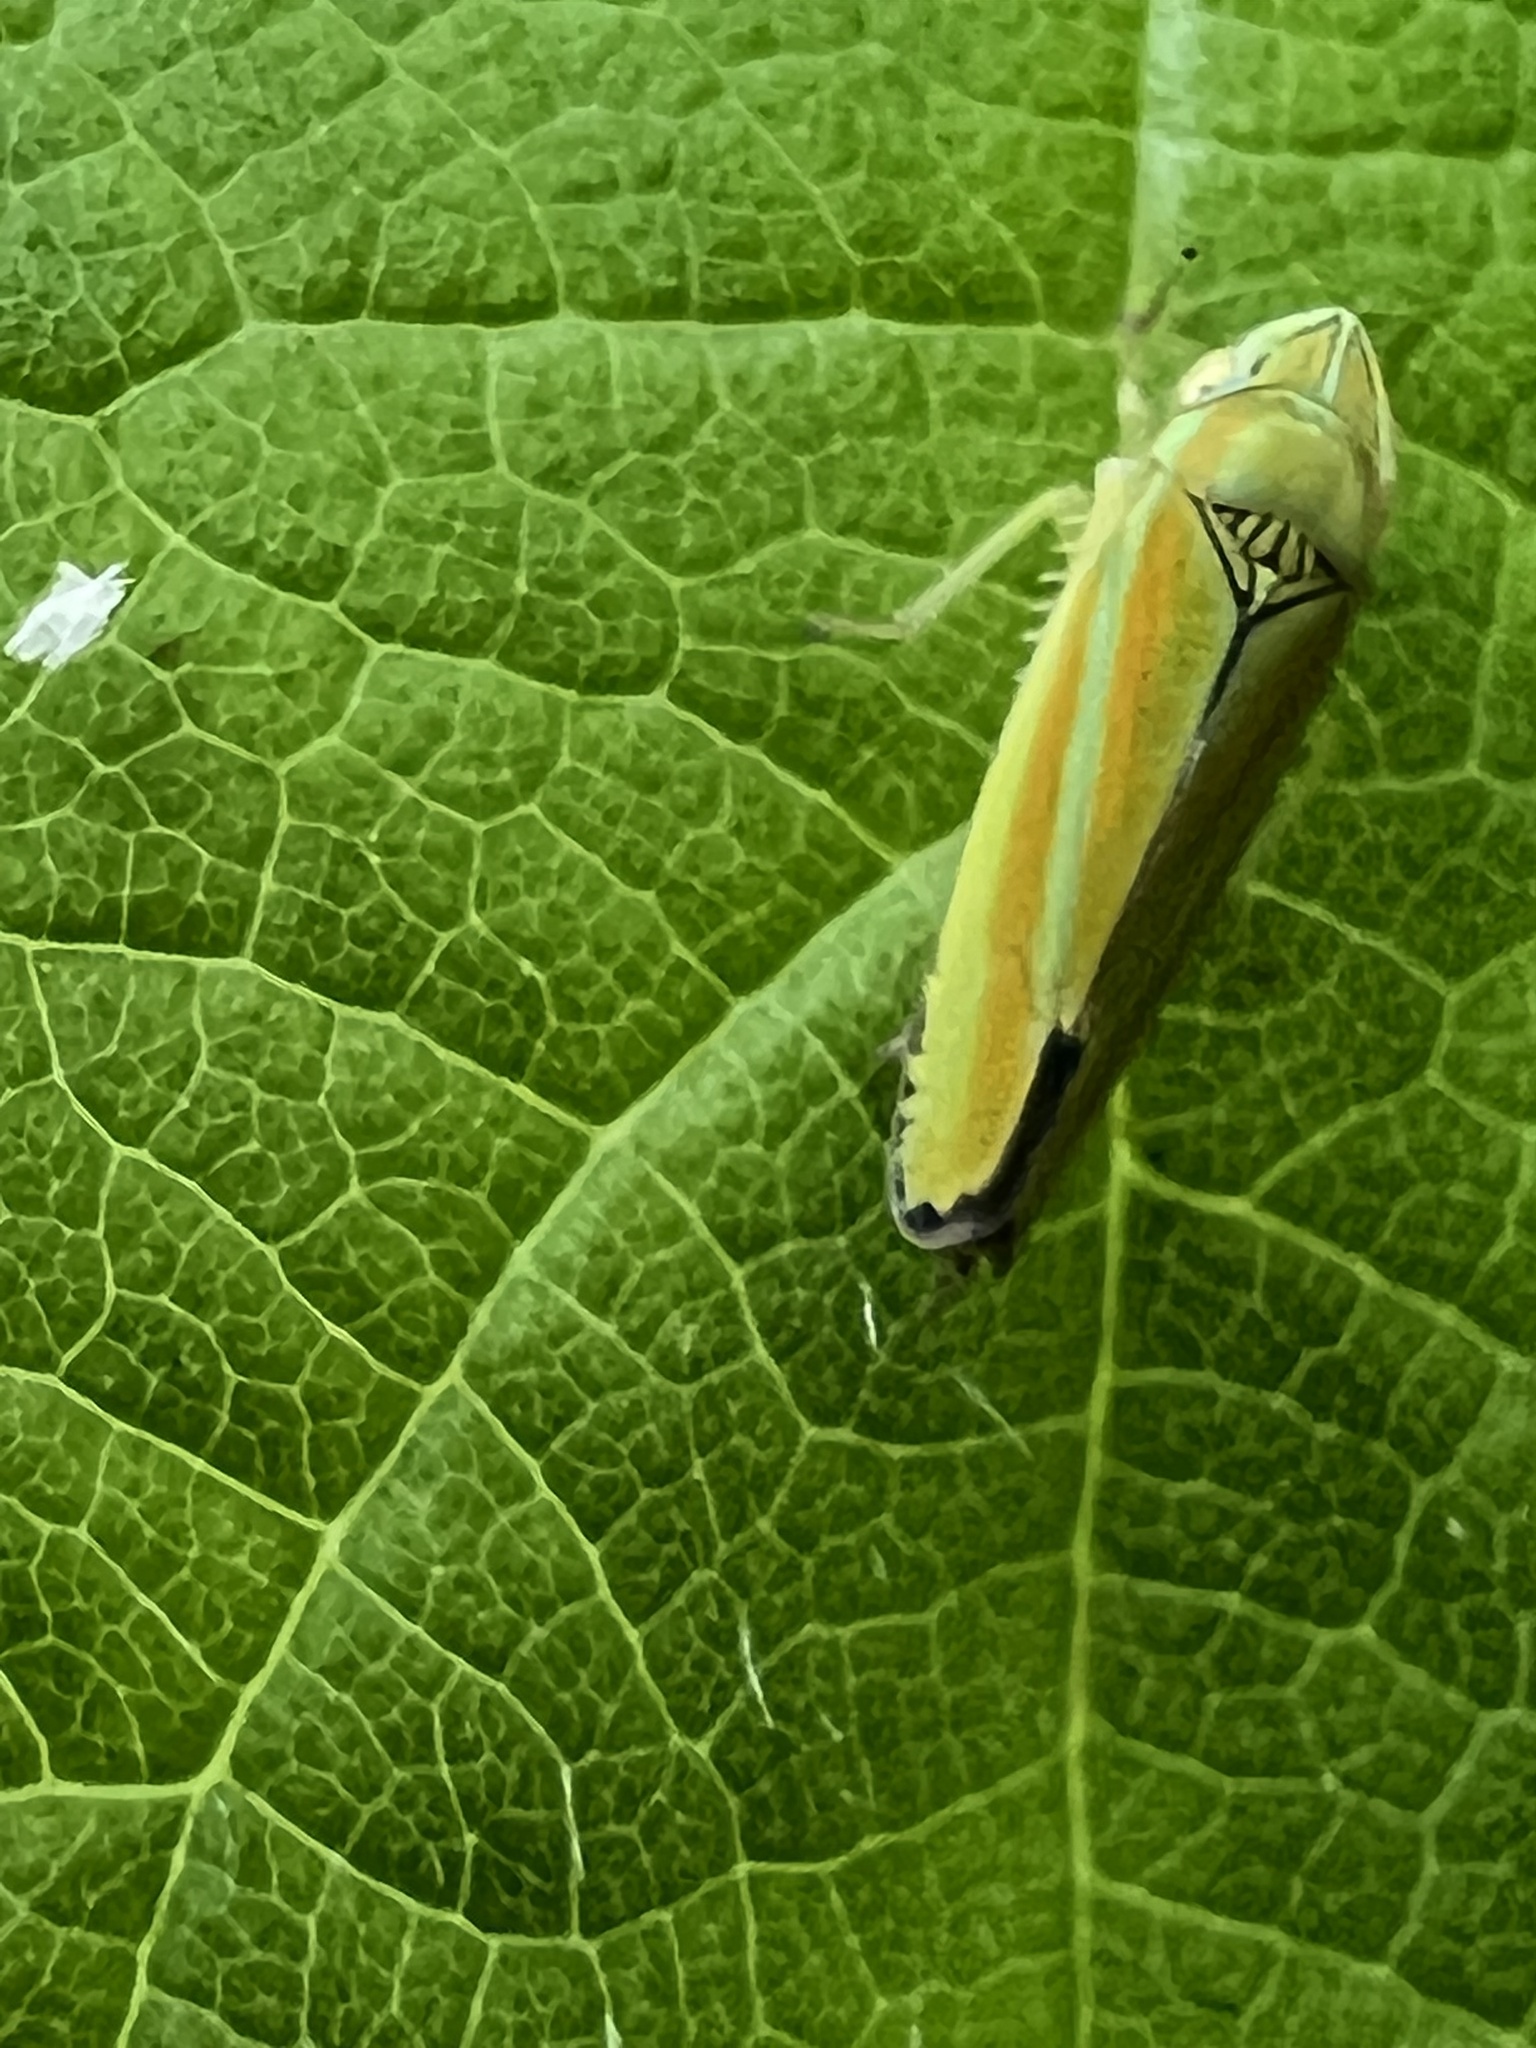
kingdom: Animalia
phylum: Arthropoda
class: Insecta
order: Hemiptera
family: Cicadellidae
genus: Graphocephala
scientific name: Graphocephala versuta
